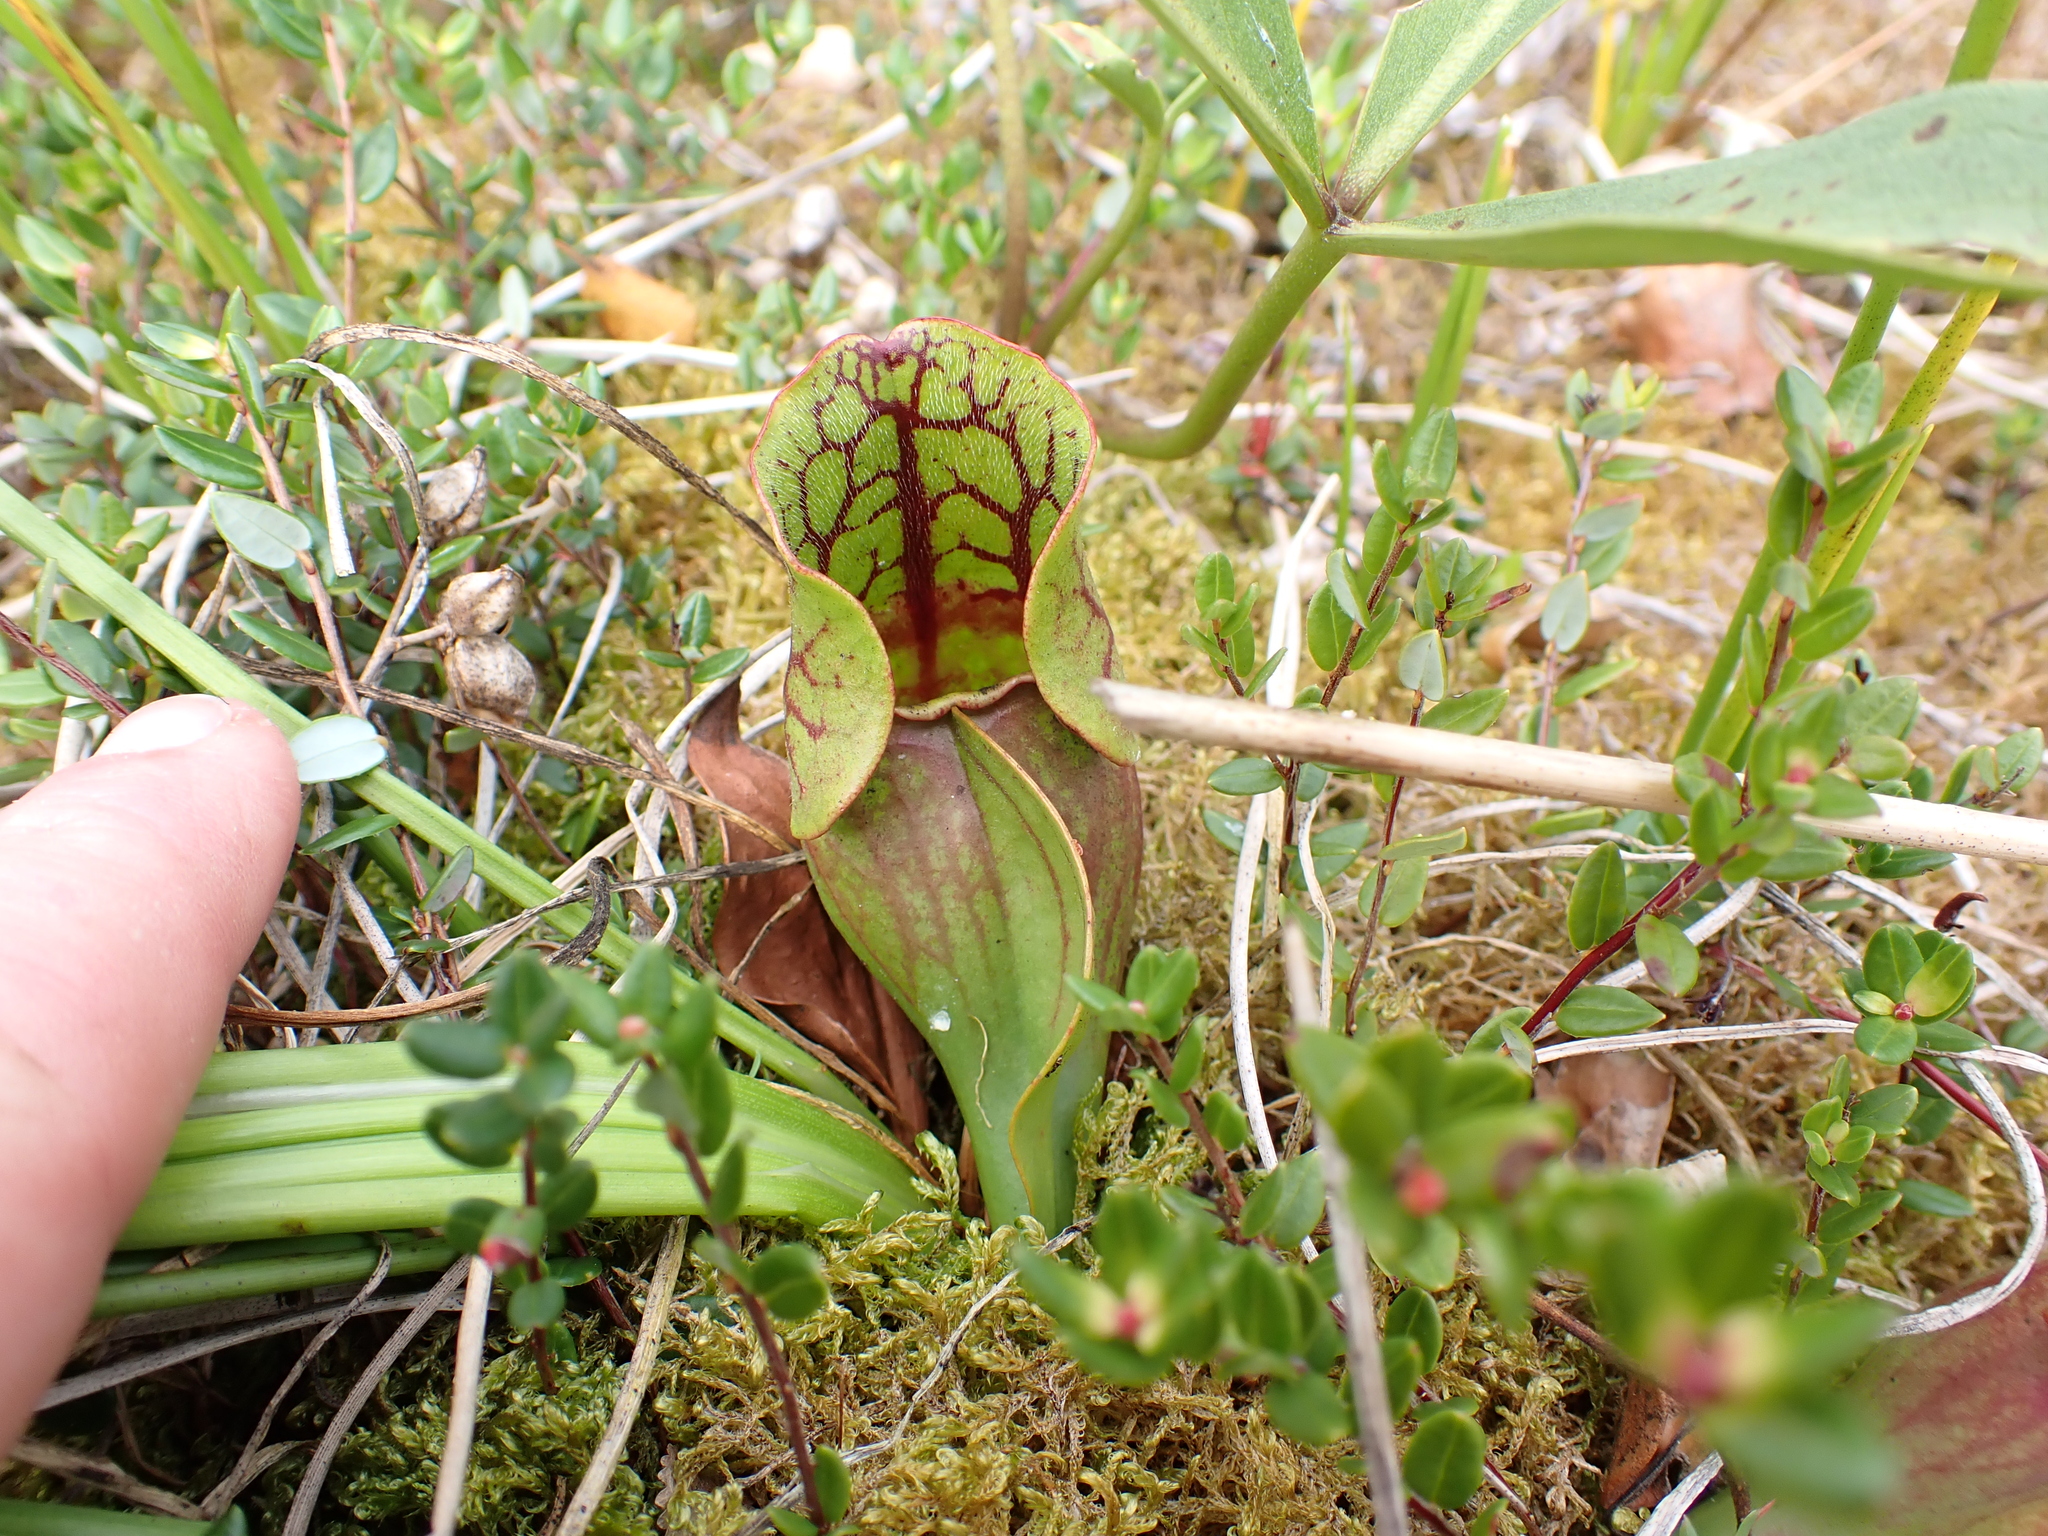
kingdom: Plantae
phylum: Tracheophyta
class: Magnoliopsida
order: Ericales
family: Sarraceniaceae
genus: Sarracenia
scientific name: Sarracenia purpurea
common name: Pitcherplant
